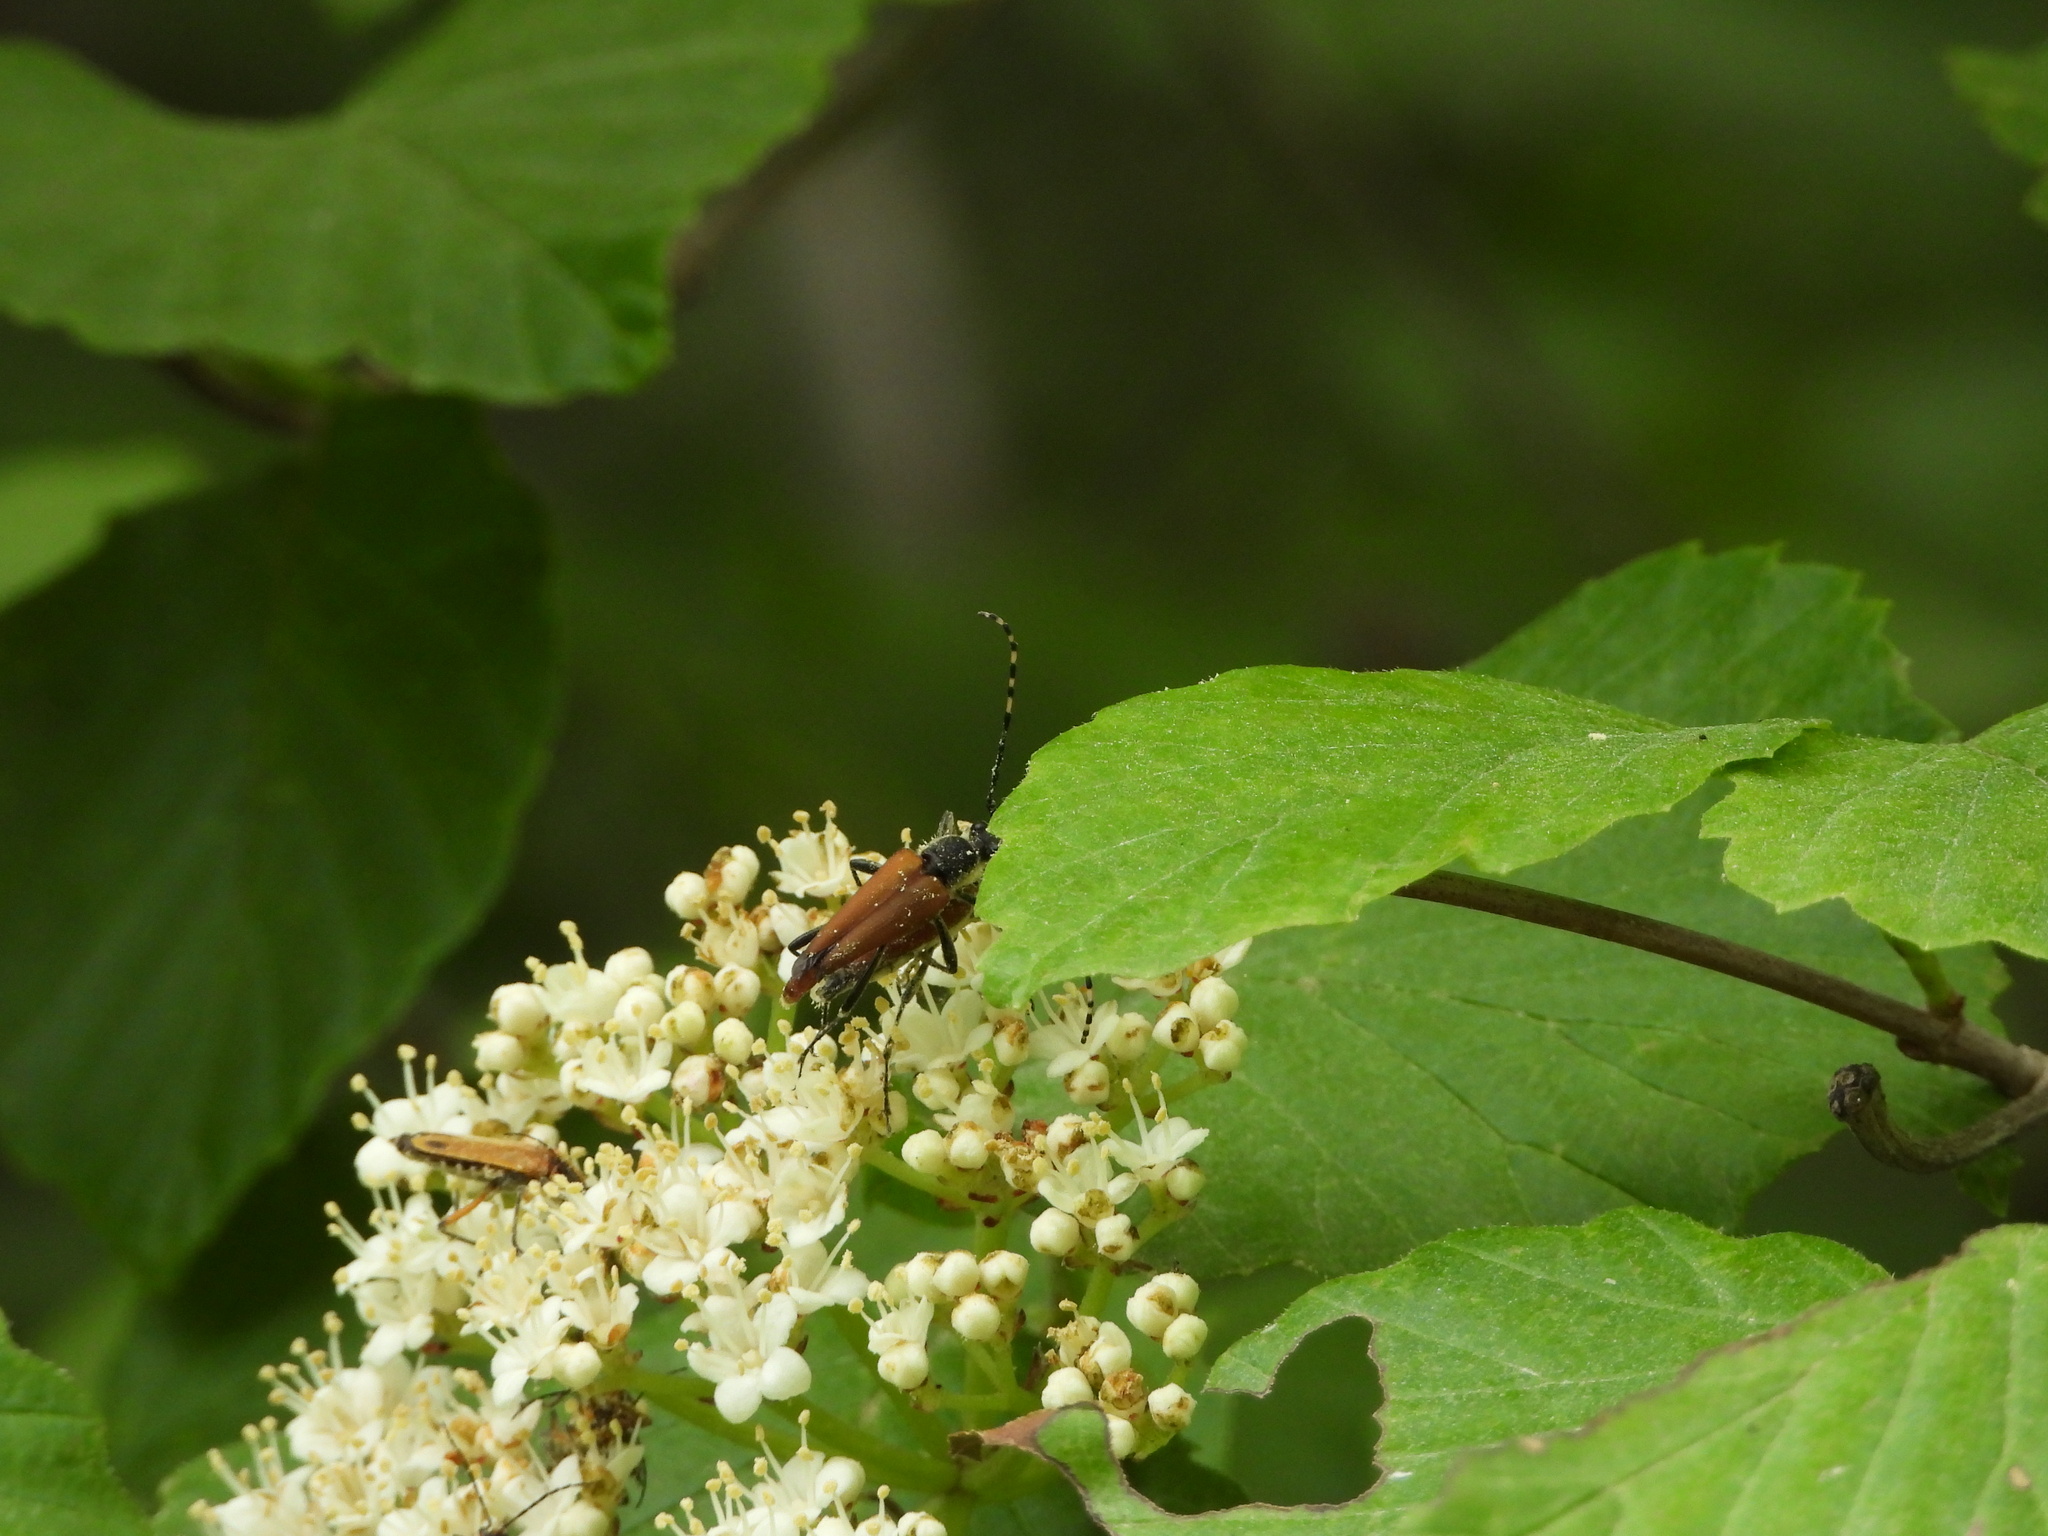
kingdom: Animalia
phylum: Arthropoda
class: Insecta
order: Coleoptera
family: Cerambycidae
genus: Brachyleptura
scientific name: Brachyleptura rubrica
